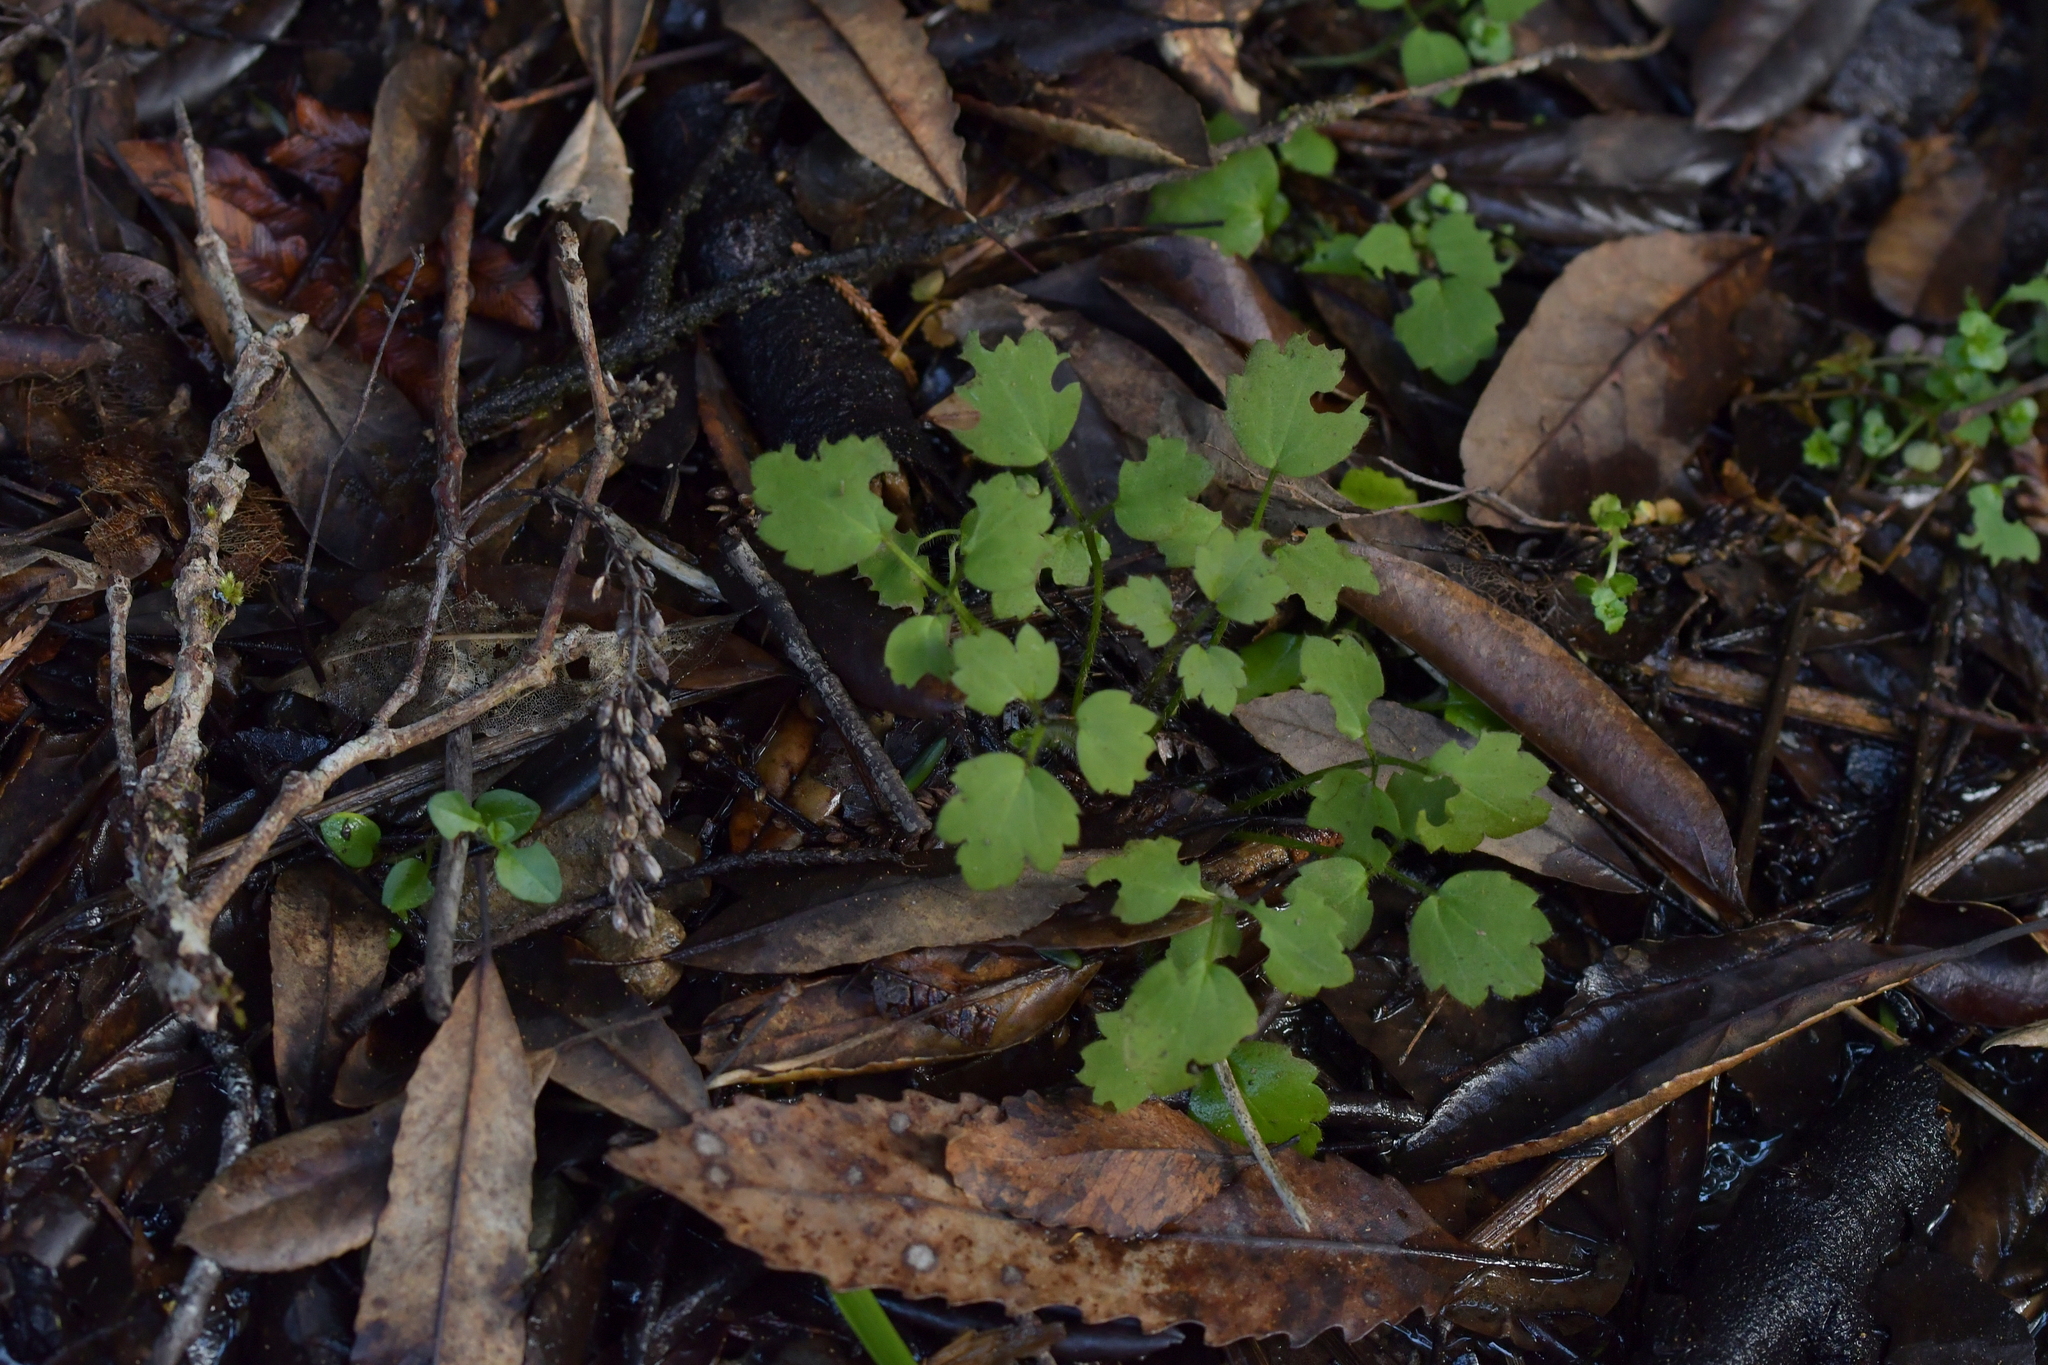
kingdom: Plantae
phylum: Tracheophyta
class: Magnoliopsida
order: Ranunculales
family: Ranunculaceae
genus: Ranunculus
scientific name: Ranunculus reflexus
